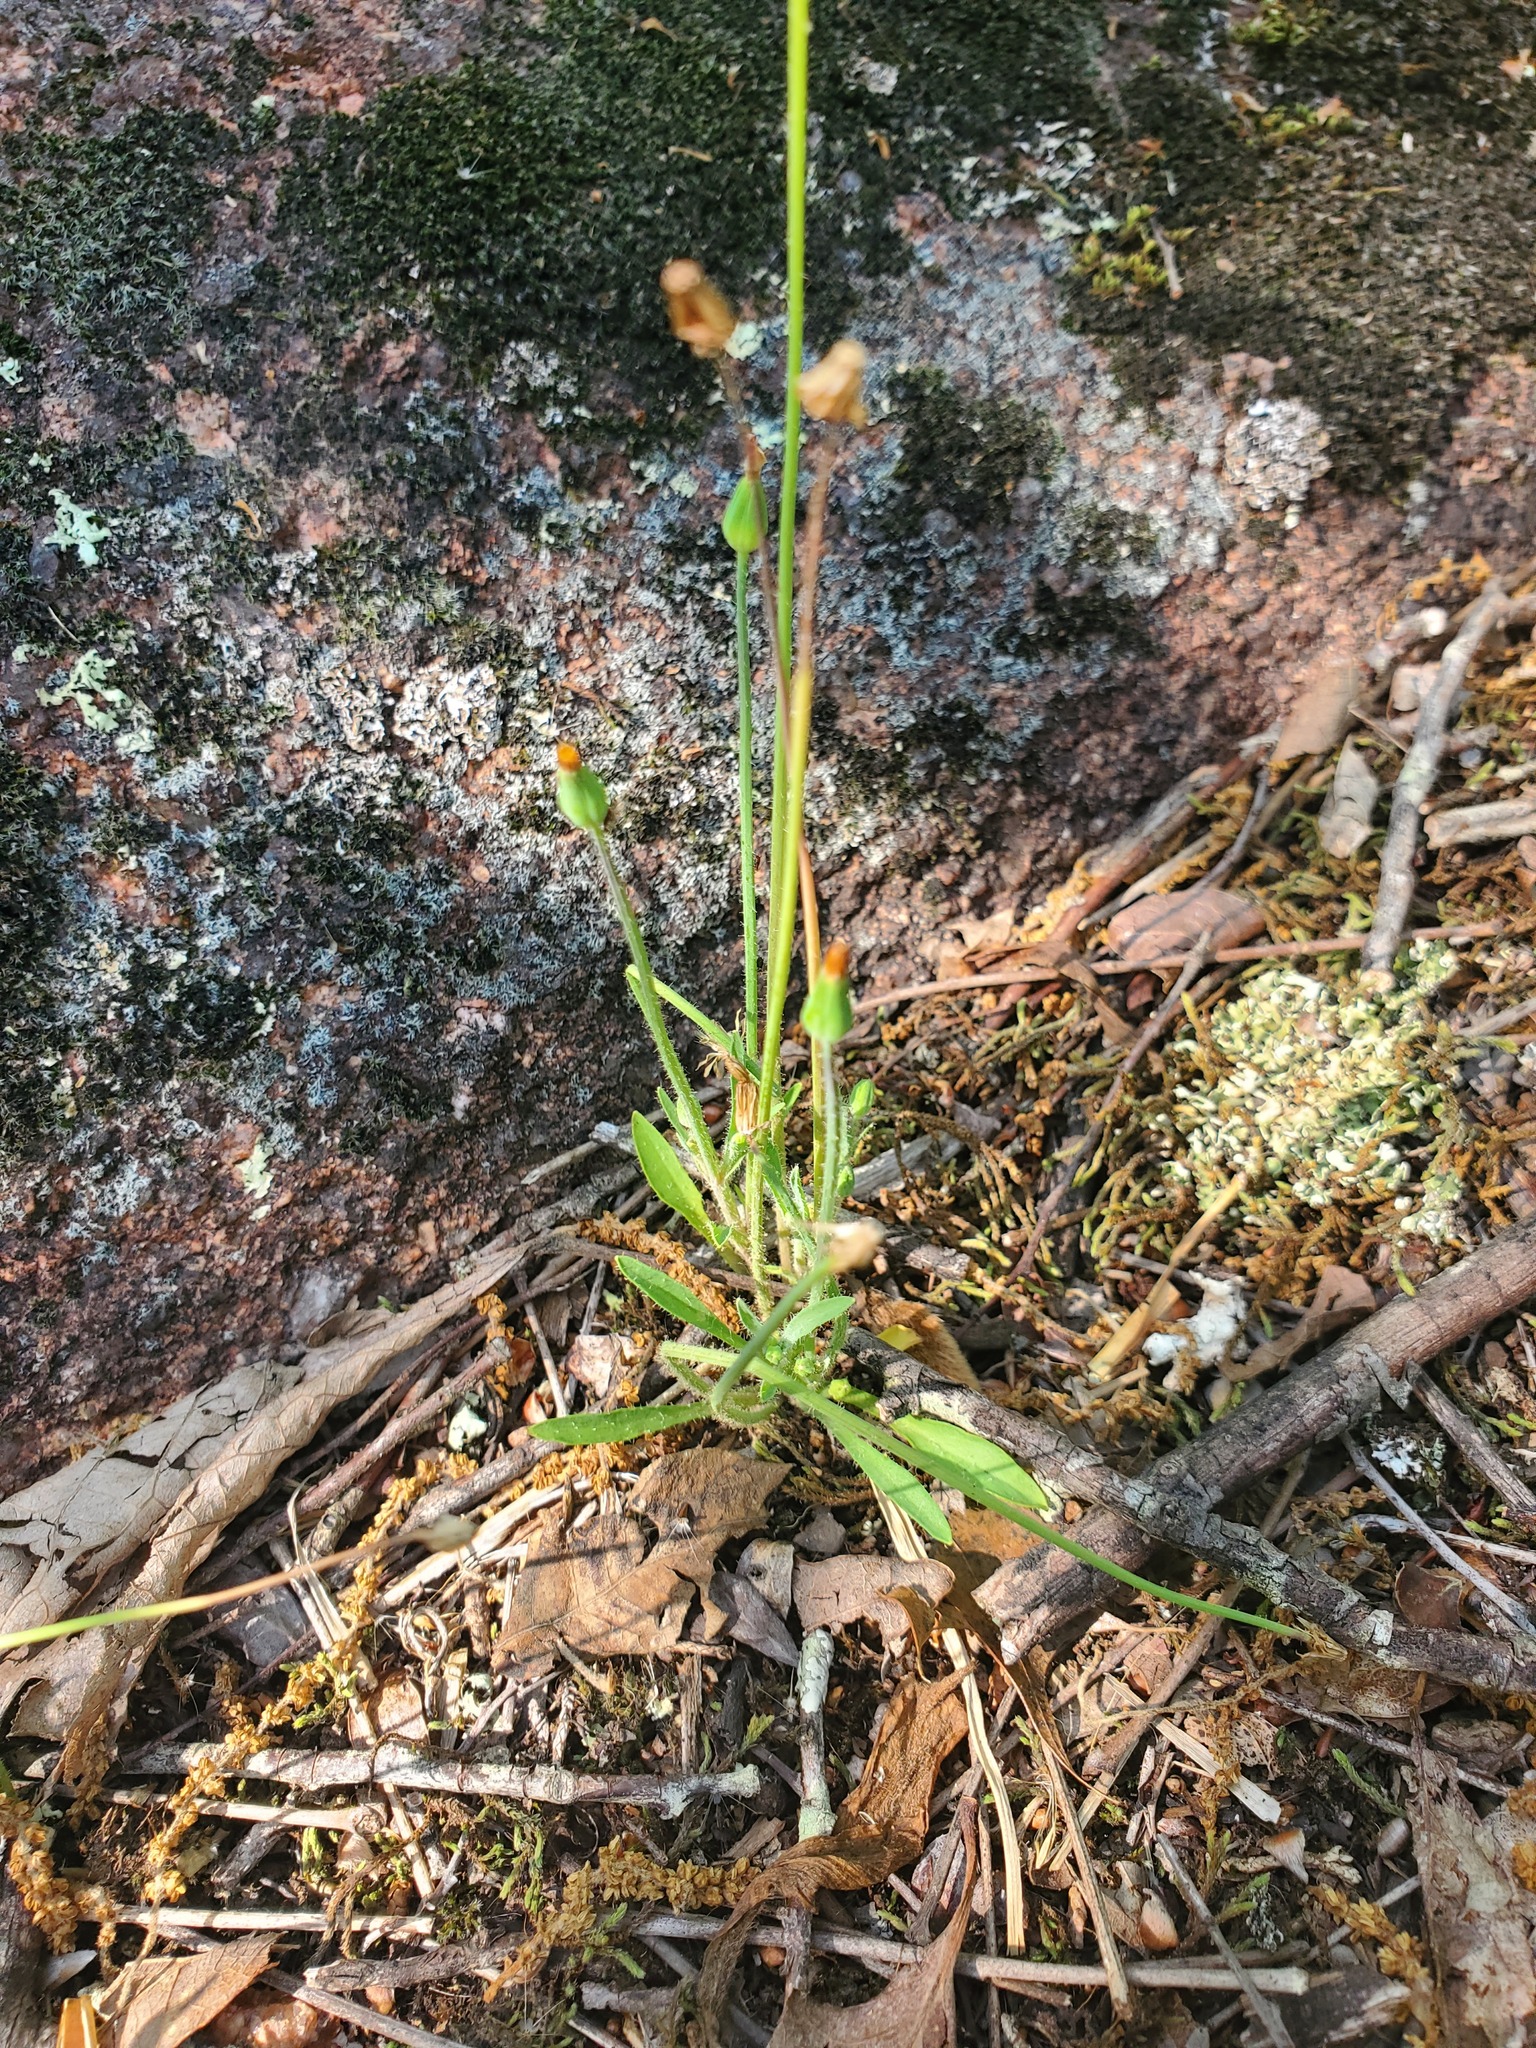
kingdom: Plantae
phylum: Tracheophyta
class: Magnoliopsida
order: Asterales
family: Asteraceae
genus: Krigia
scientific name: Krigia virginica
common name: Virginia dwarf-dandelion
